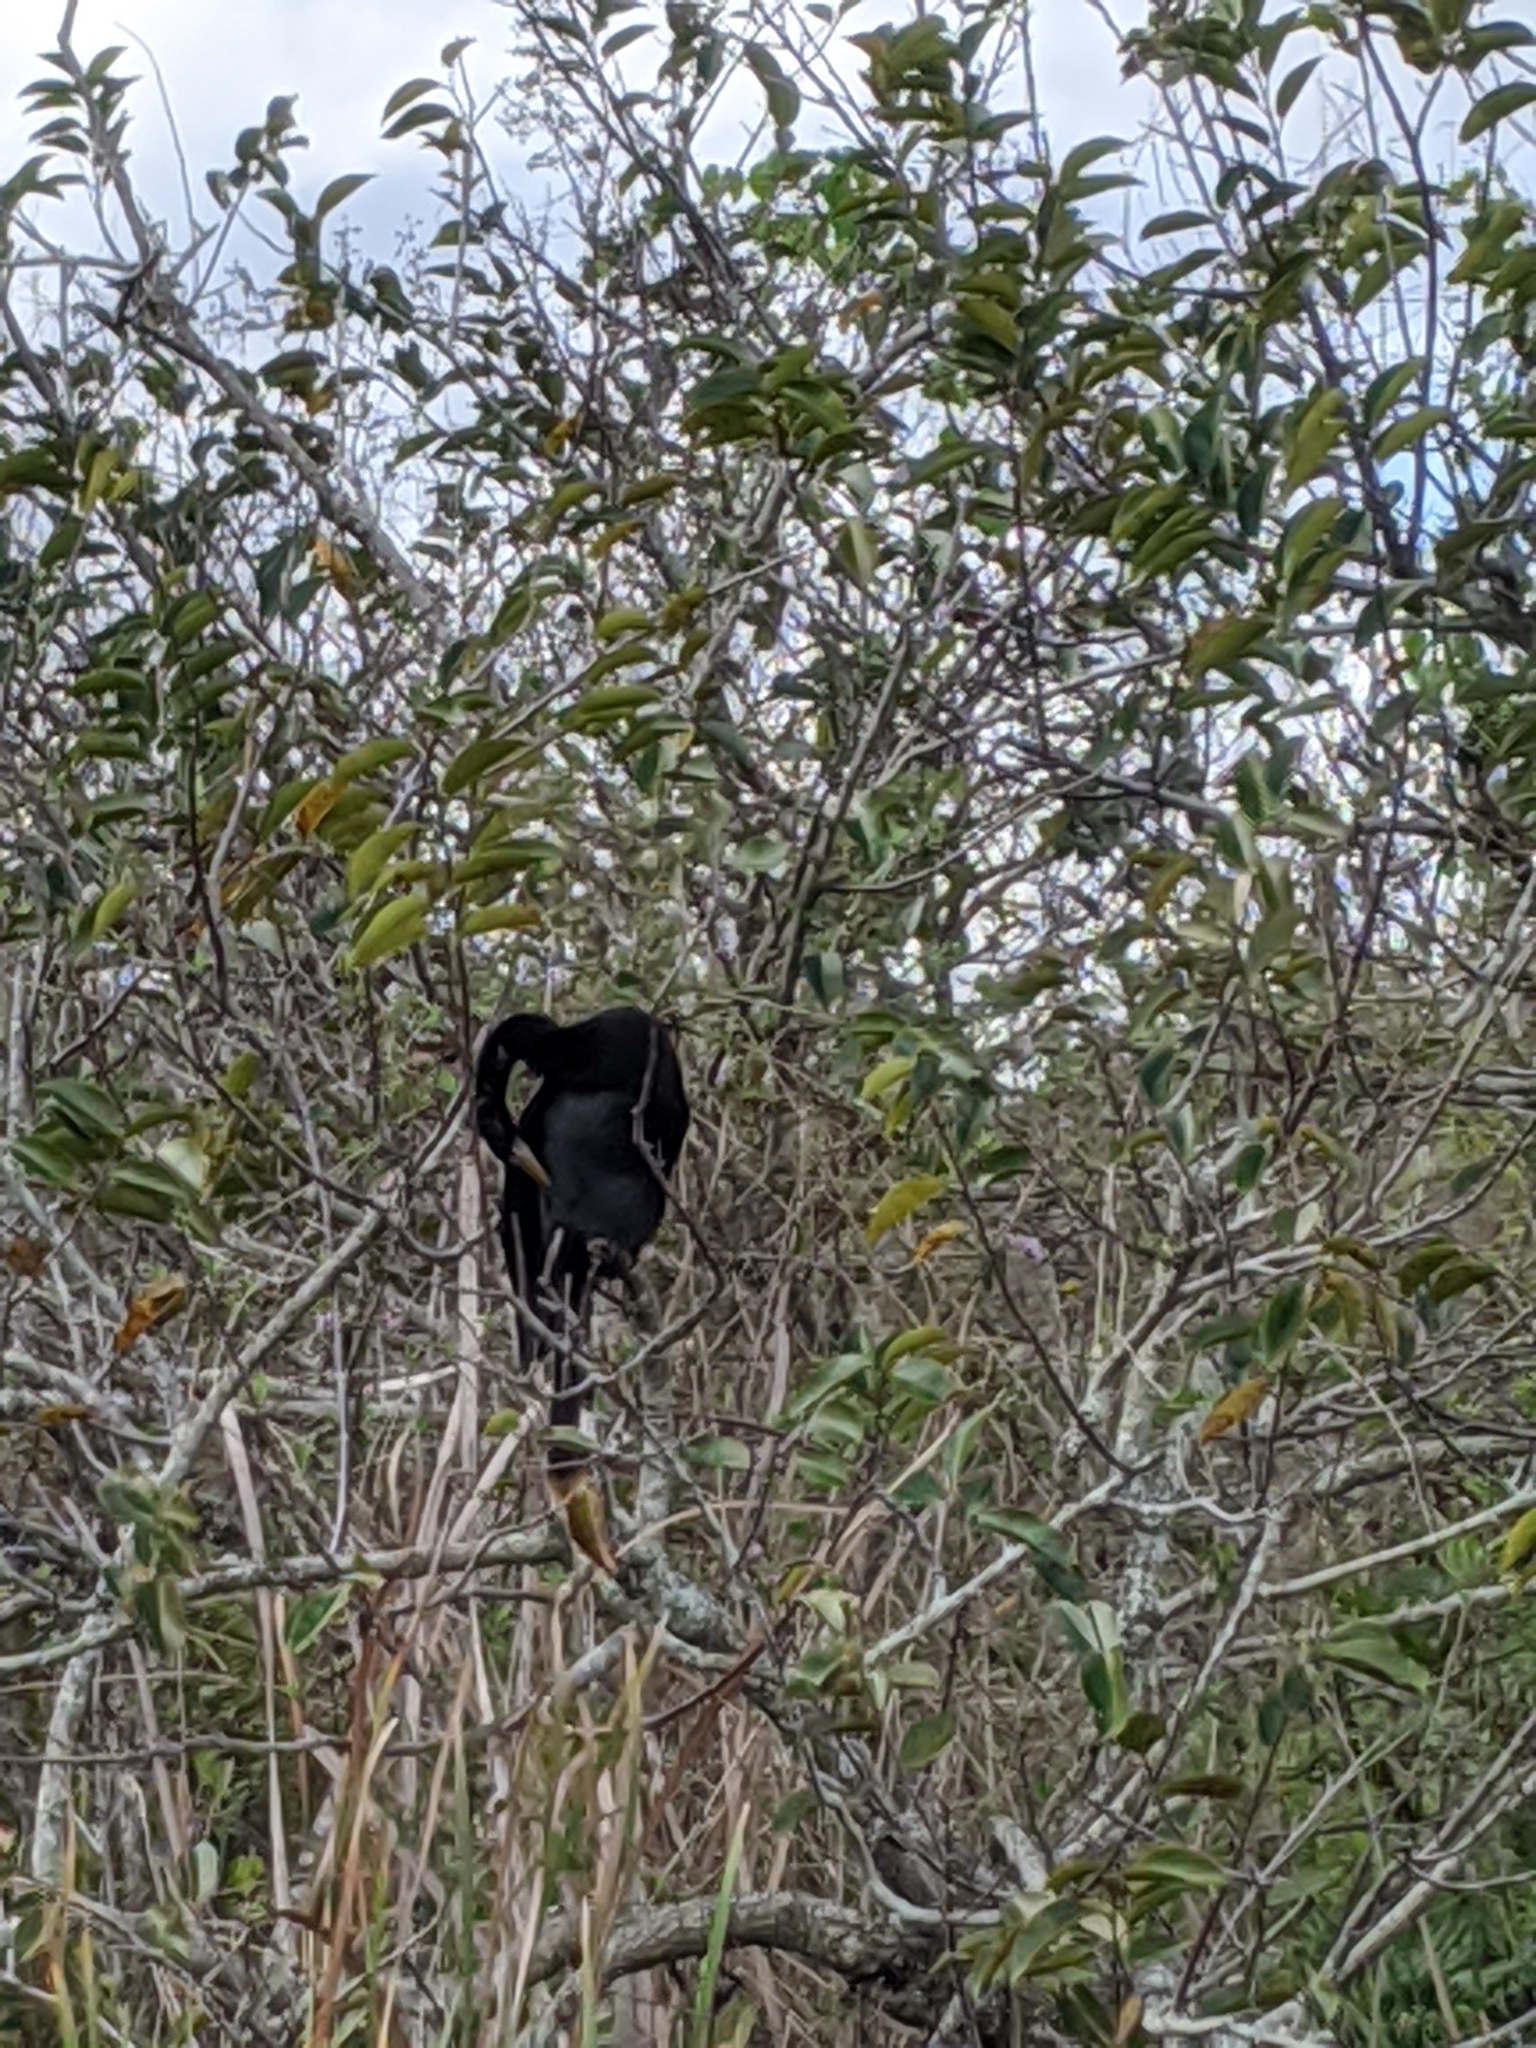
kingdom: Animalia
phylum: Chordata
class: Aves
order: Suliformes
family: Anhingidae
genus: Anhinga
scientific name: Anhinga anhinga
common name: Anhinga
